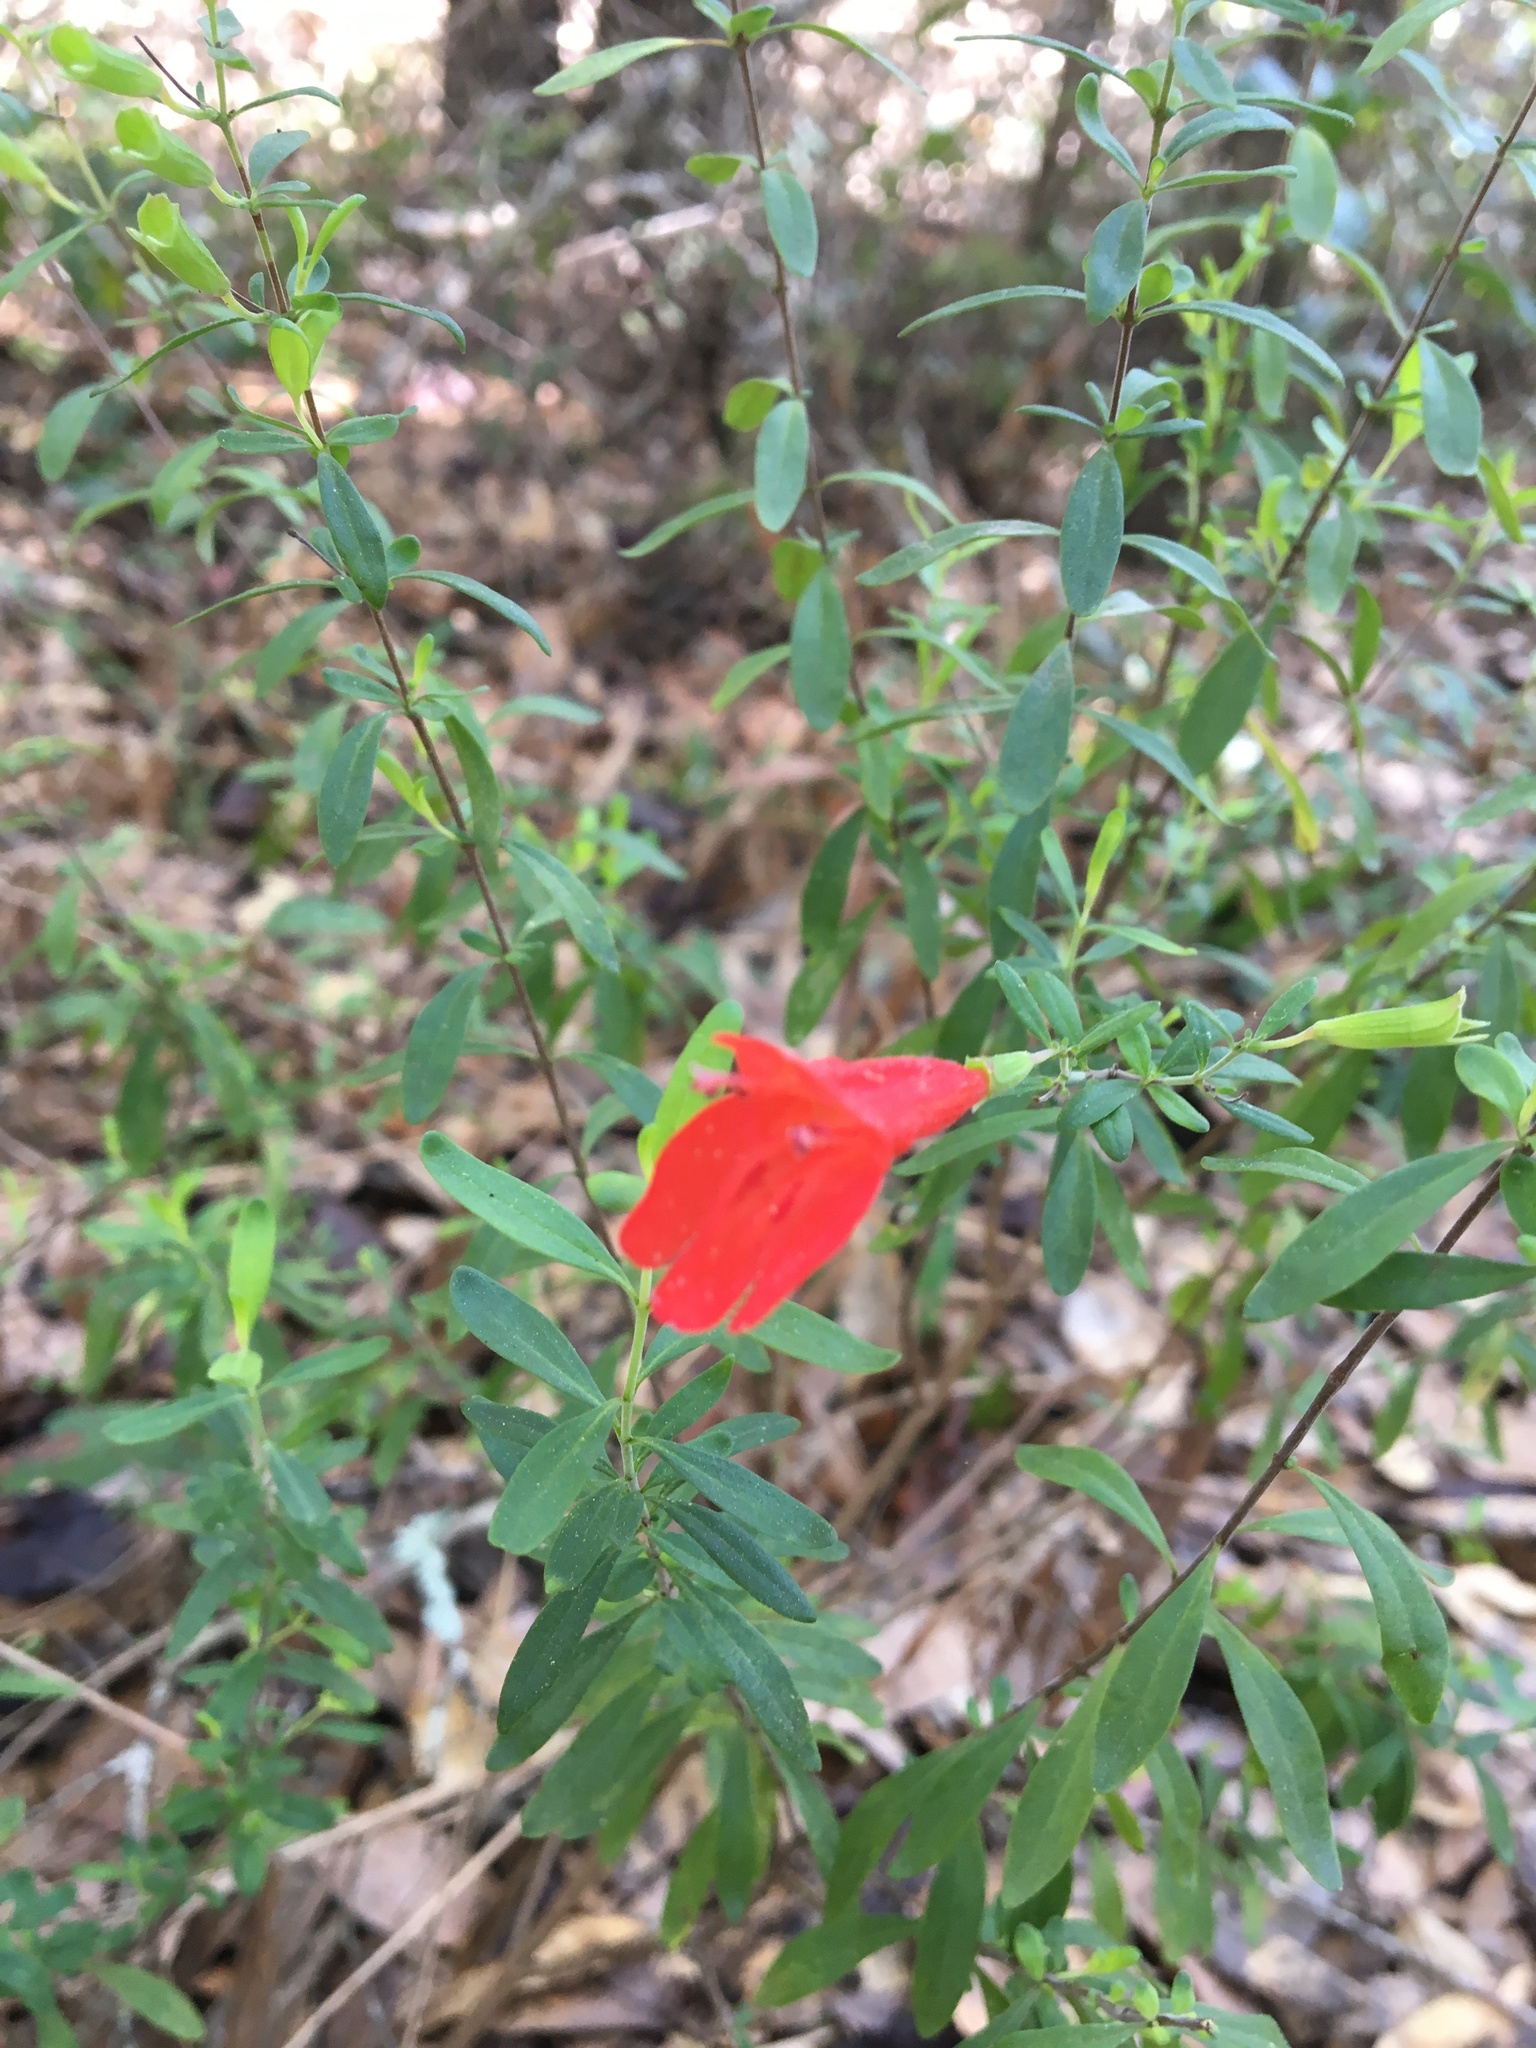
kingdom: Plantae
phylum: Tracheophyta
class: Magnoliopsida
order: Lamiales
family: Lamiaceae
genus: Clinopodium
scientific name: Clinopodium coccineum
